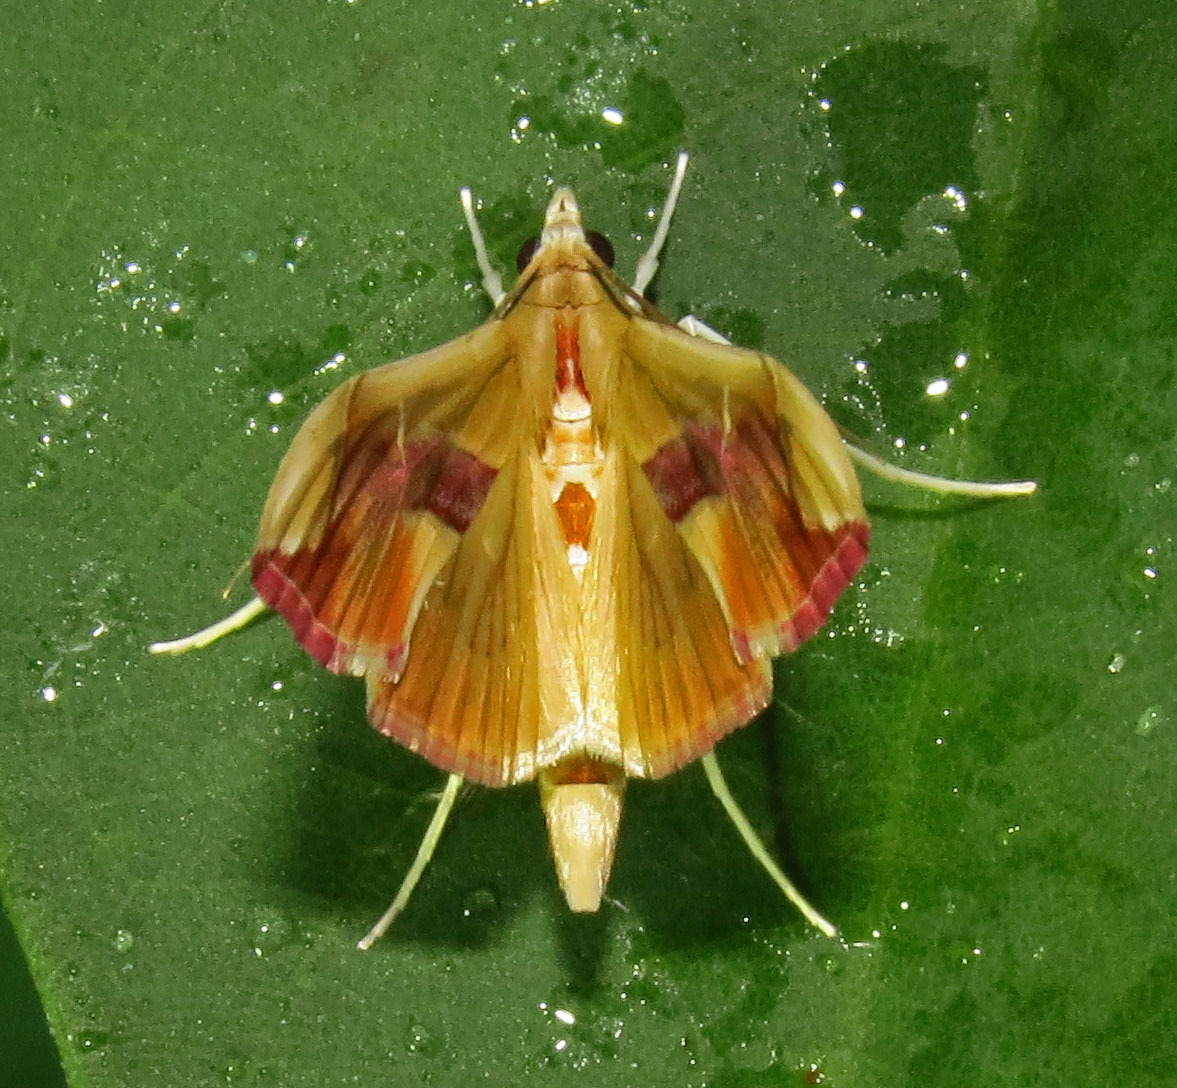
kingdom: Animalia
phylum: Arthropoda
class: Insecta
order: Lepidoptera
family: Crambidae
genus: Agathodes
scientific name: Agathodes monstralis
